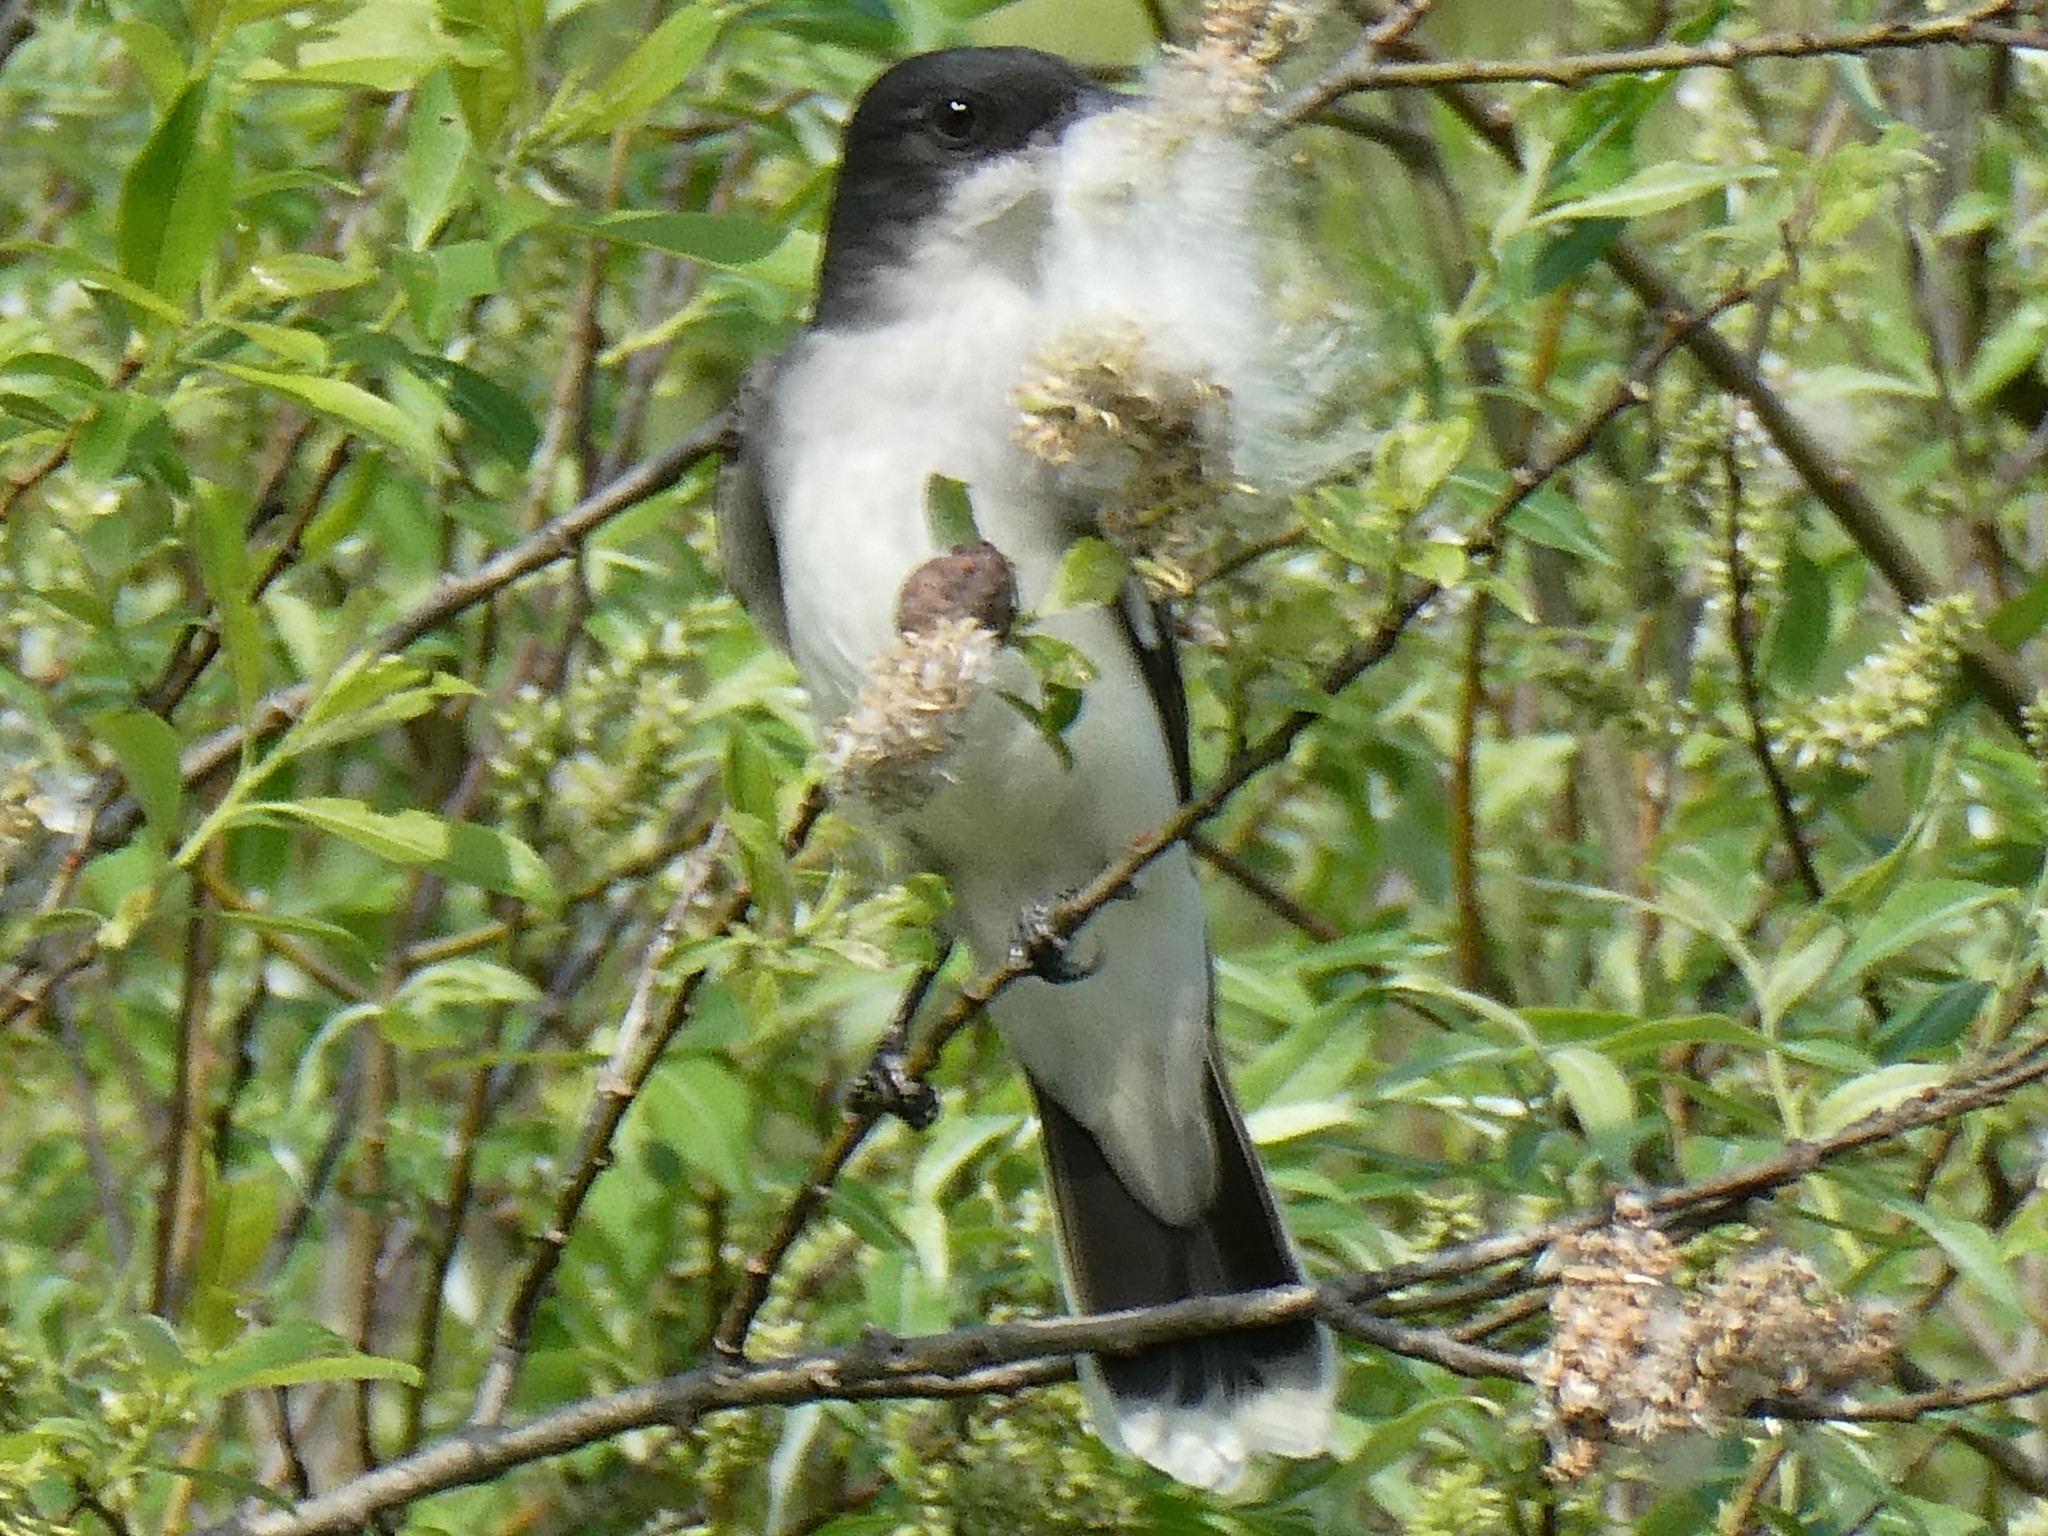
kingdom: Animalia
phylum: Chordata
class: Aves
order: Passeriformes
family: Tyrannidae
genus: Tyrannus
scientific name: Tyrannus tyrannus
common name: Eastern kingbird
